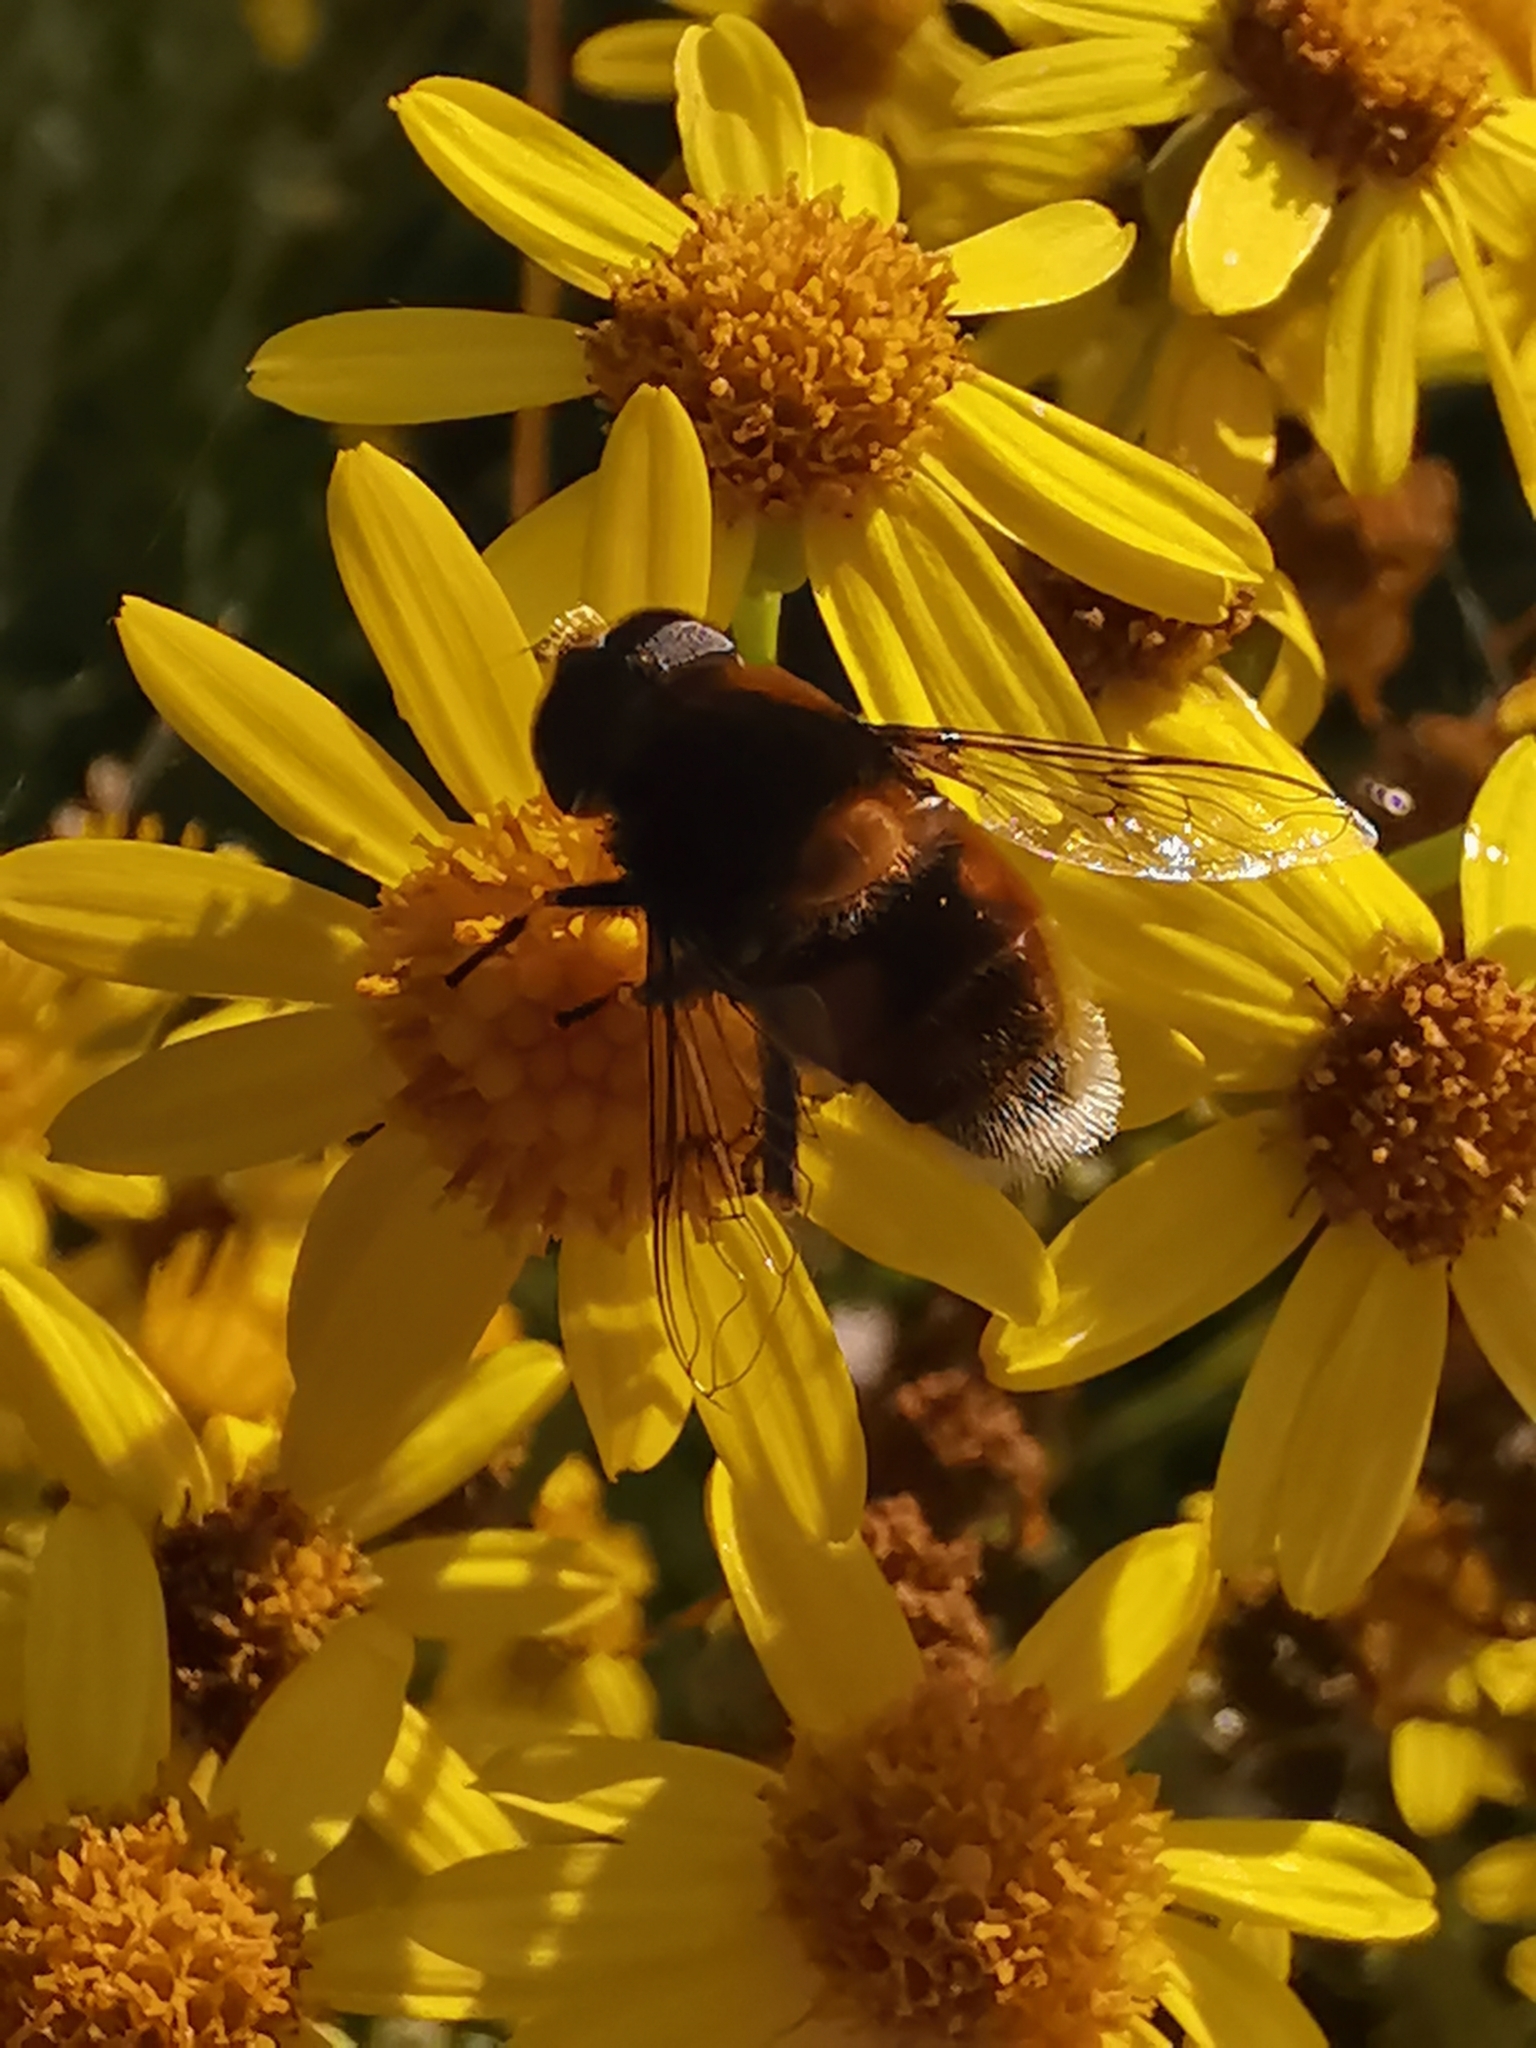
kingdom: Animalia
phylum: Arthropoda
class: Insecta
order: Diptera
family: Syrphidae
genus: Eristalis
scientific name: Eristalis intricaria
